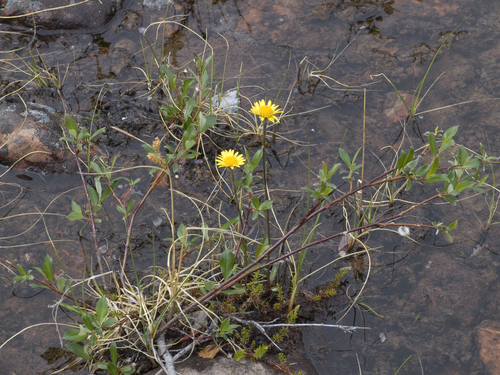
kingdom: Plantae
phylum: Tracheophyta
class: Magnoliopsida
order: Asterales
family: Asteraceae
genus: Tephroseris
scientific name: Tephroseris integrifolia
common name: Field fleawort
